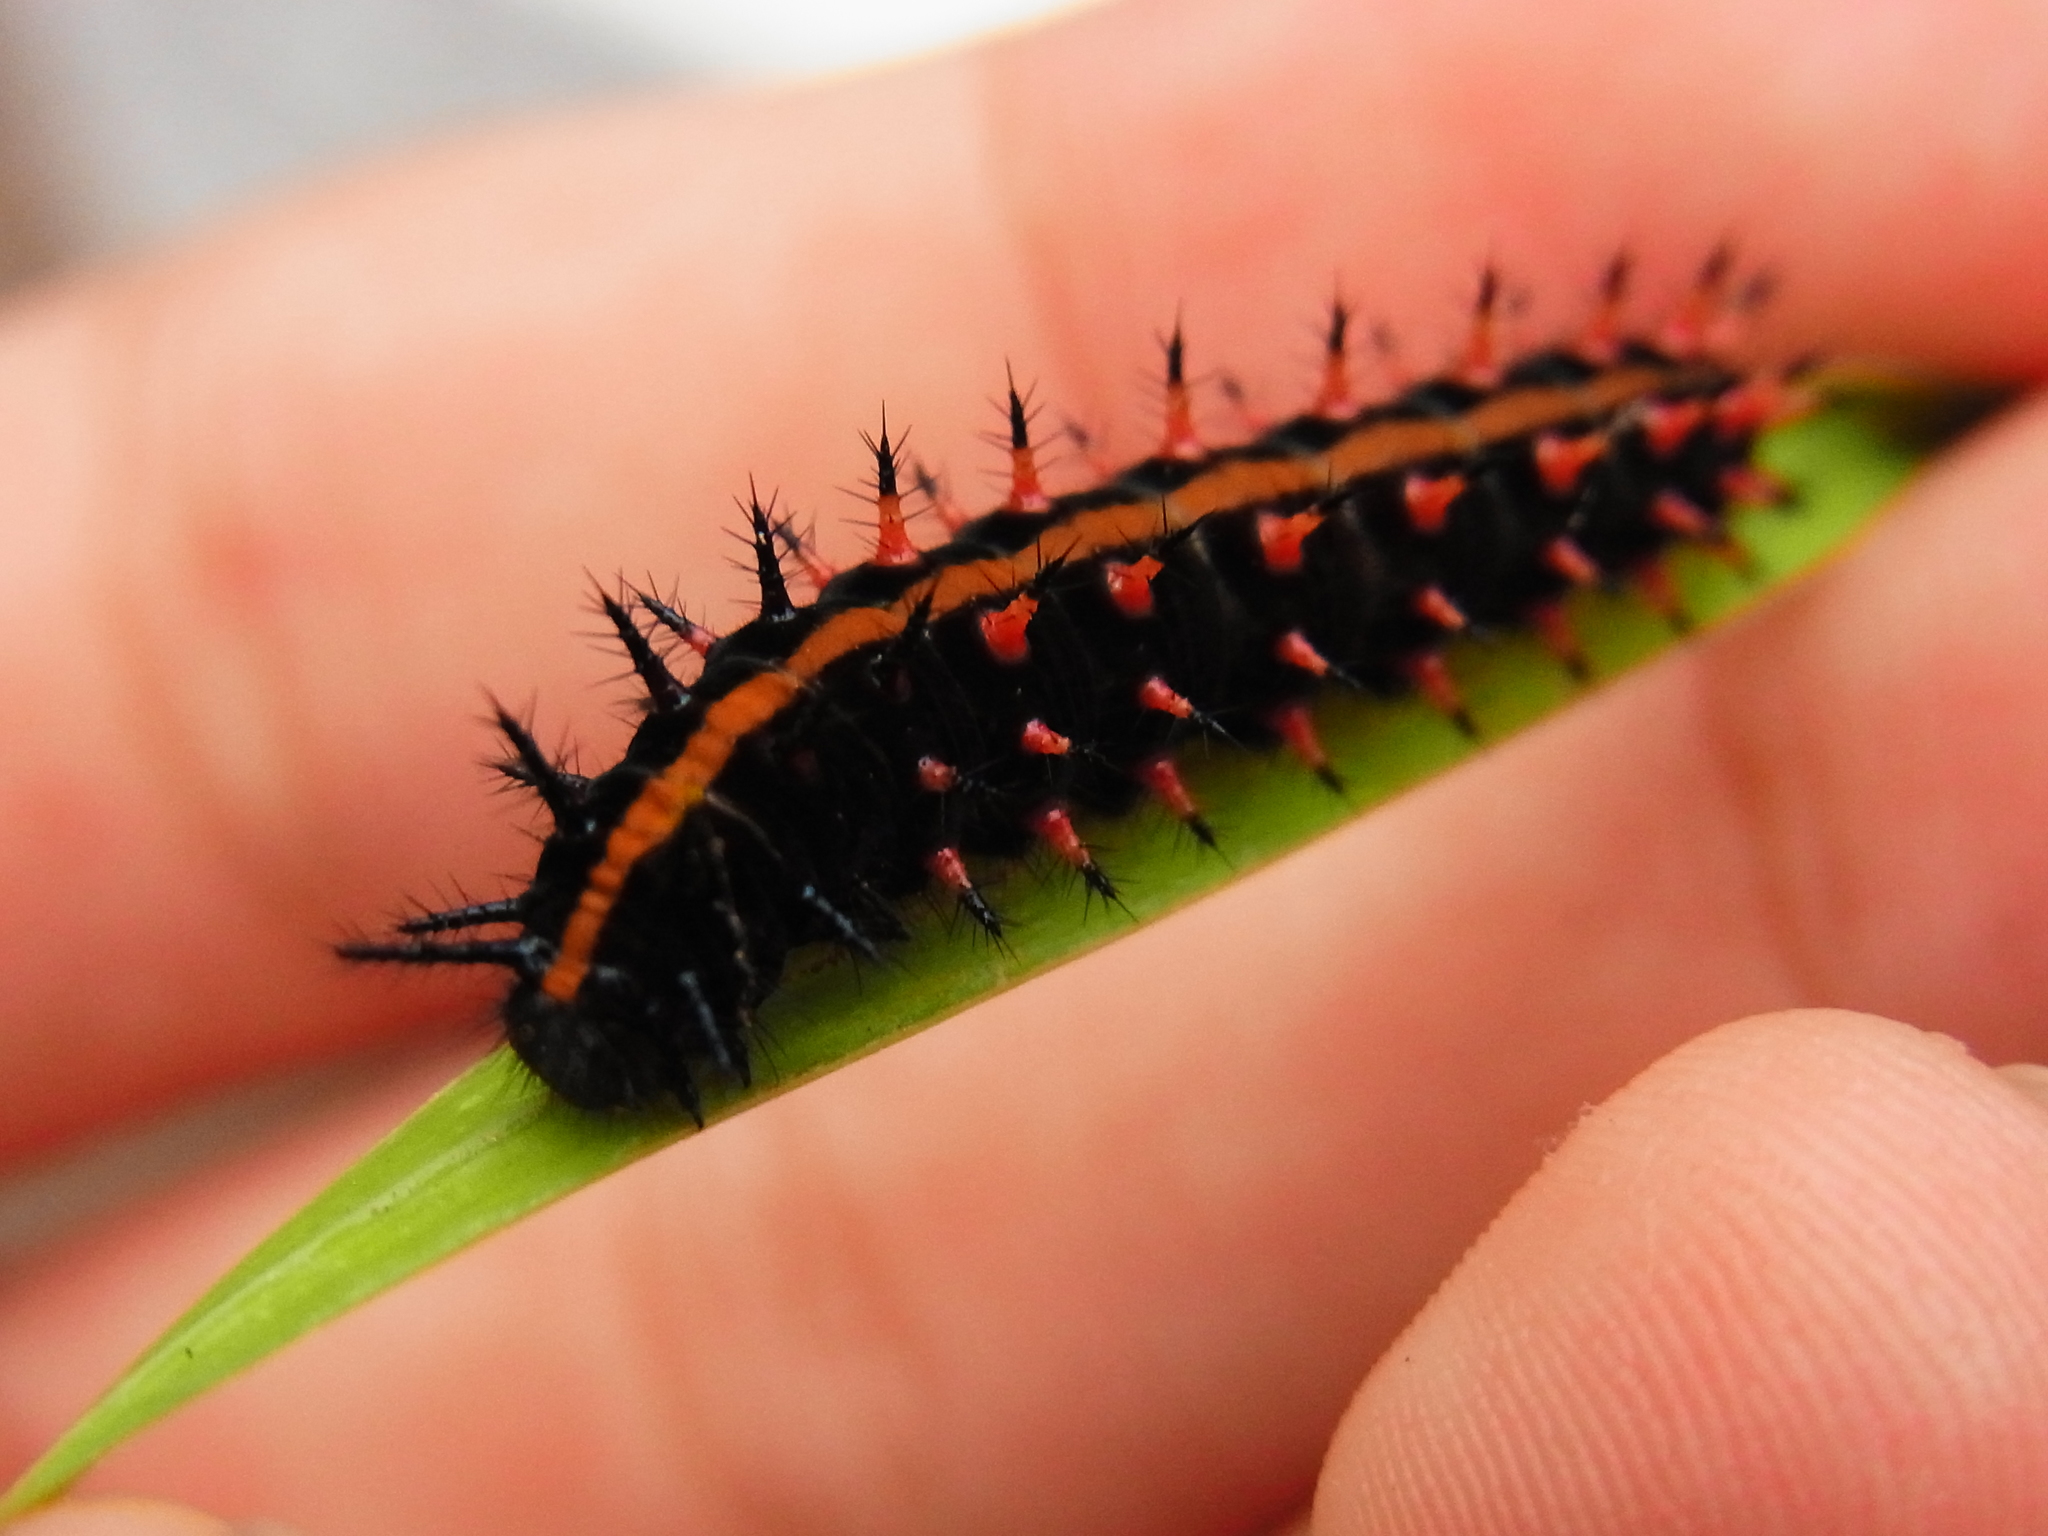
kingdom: Animalia
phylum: Arthropoda
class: Insecta
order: Lepidoptera
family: Nymphalidae
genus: Argynnis
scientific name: Argynnis hyperbius
